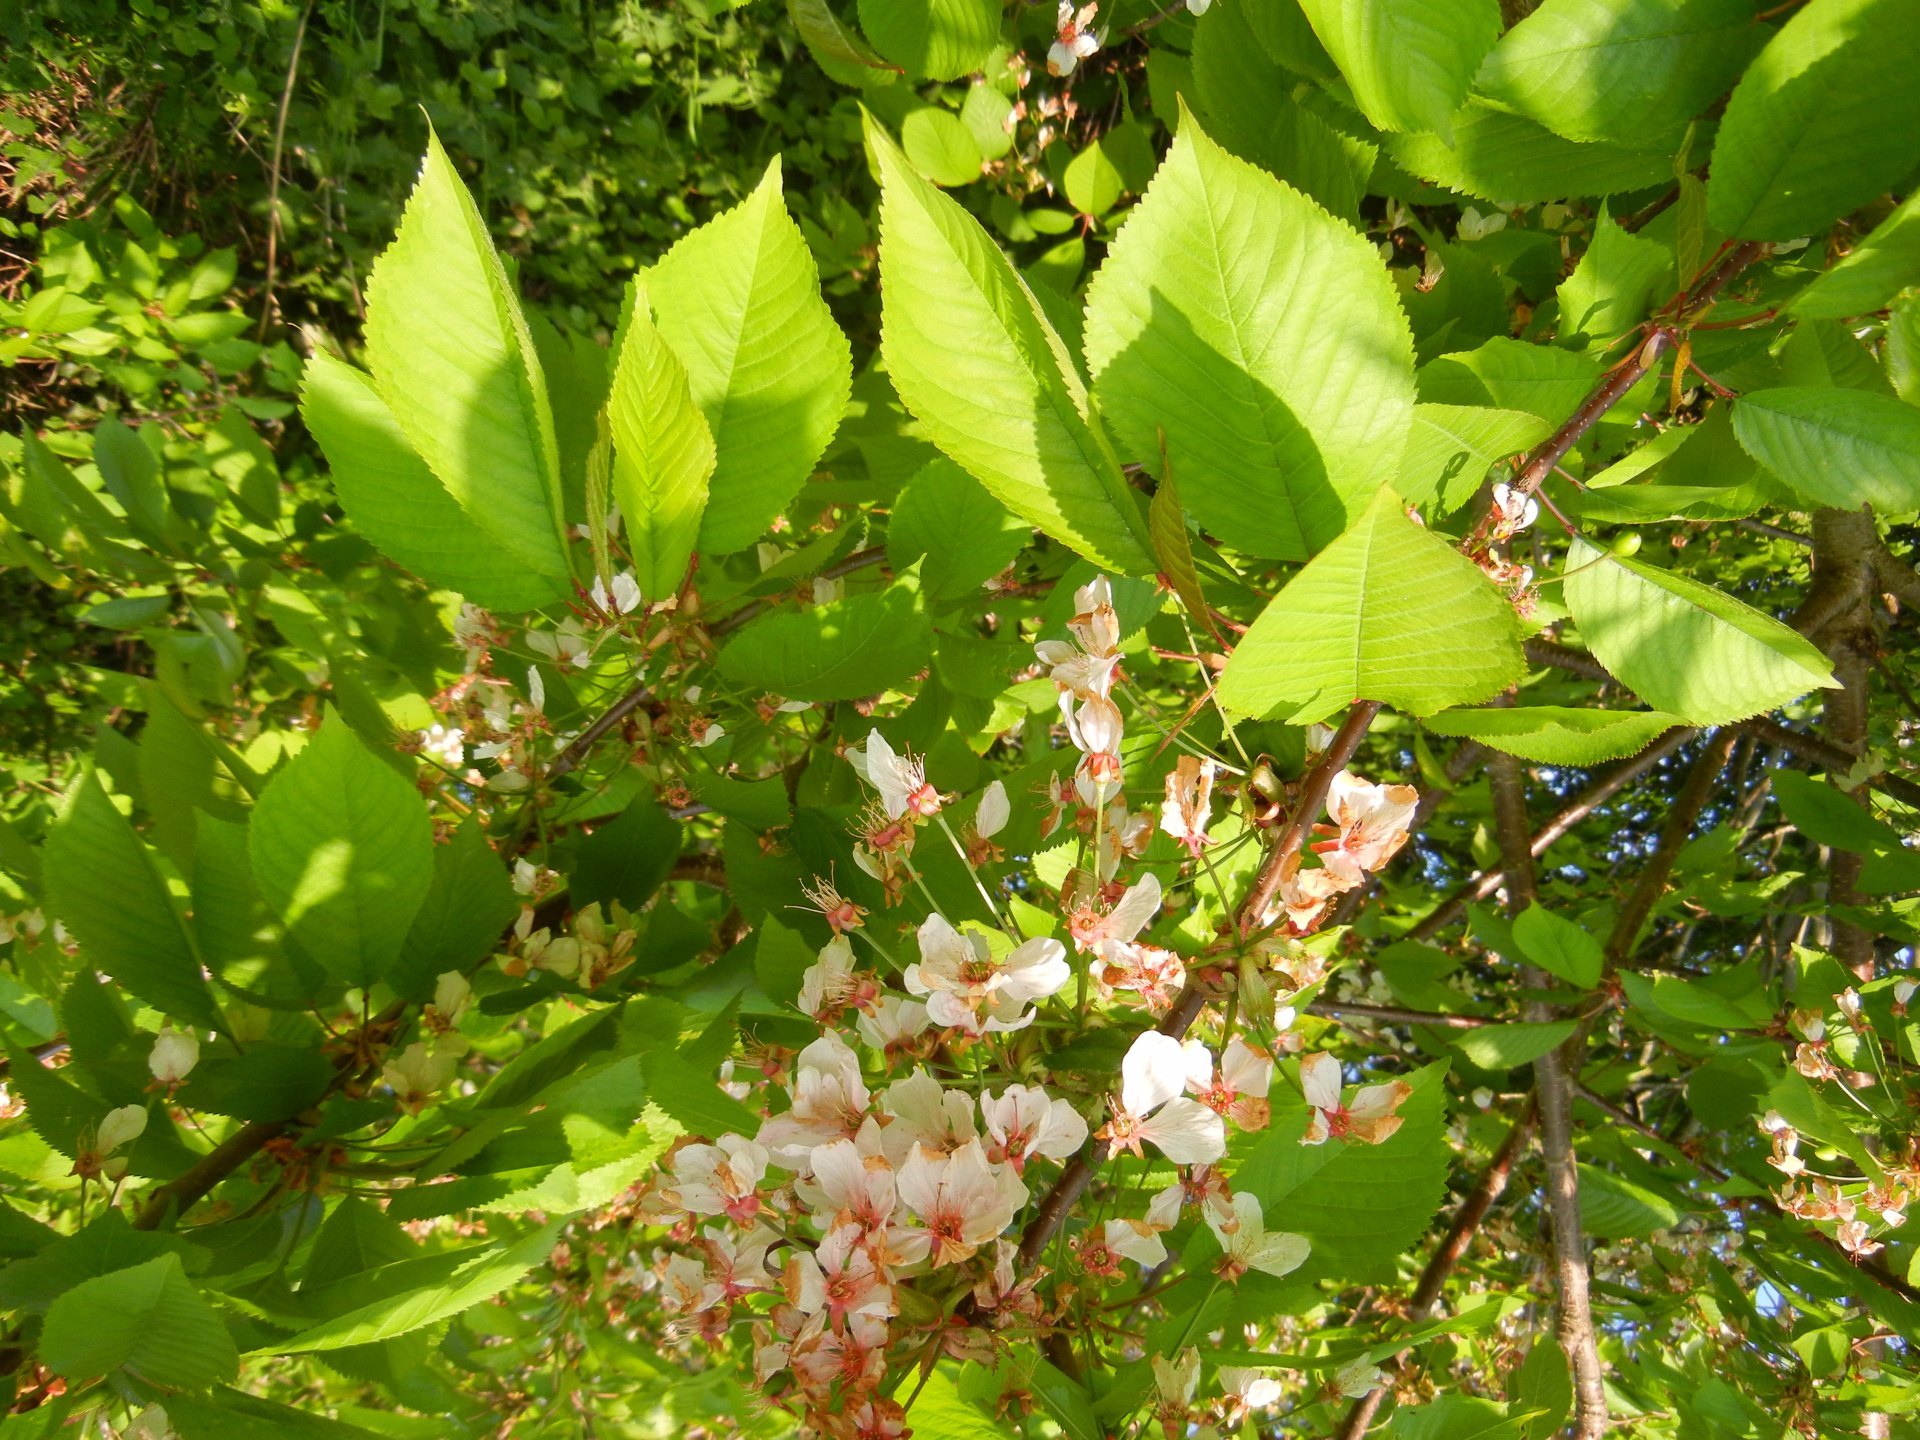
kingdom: Plantae
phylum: Tracheophyta
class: Magnoliopsida
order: Rosales
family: Rosaceae
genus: Prunus
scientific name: Prunus avium
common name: Sweet cherry
